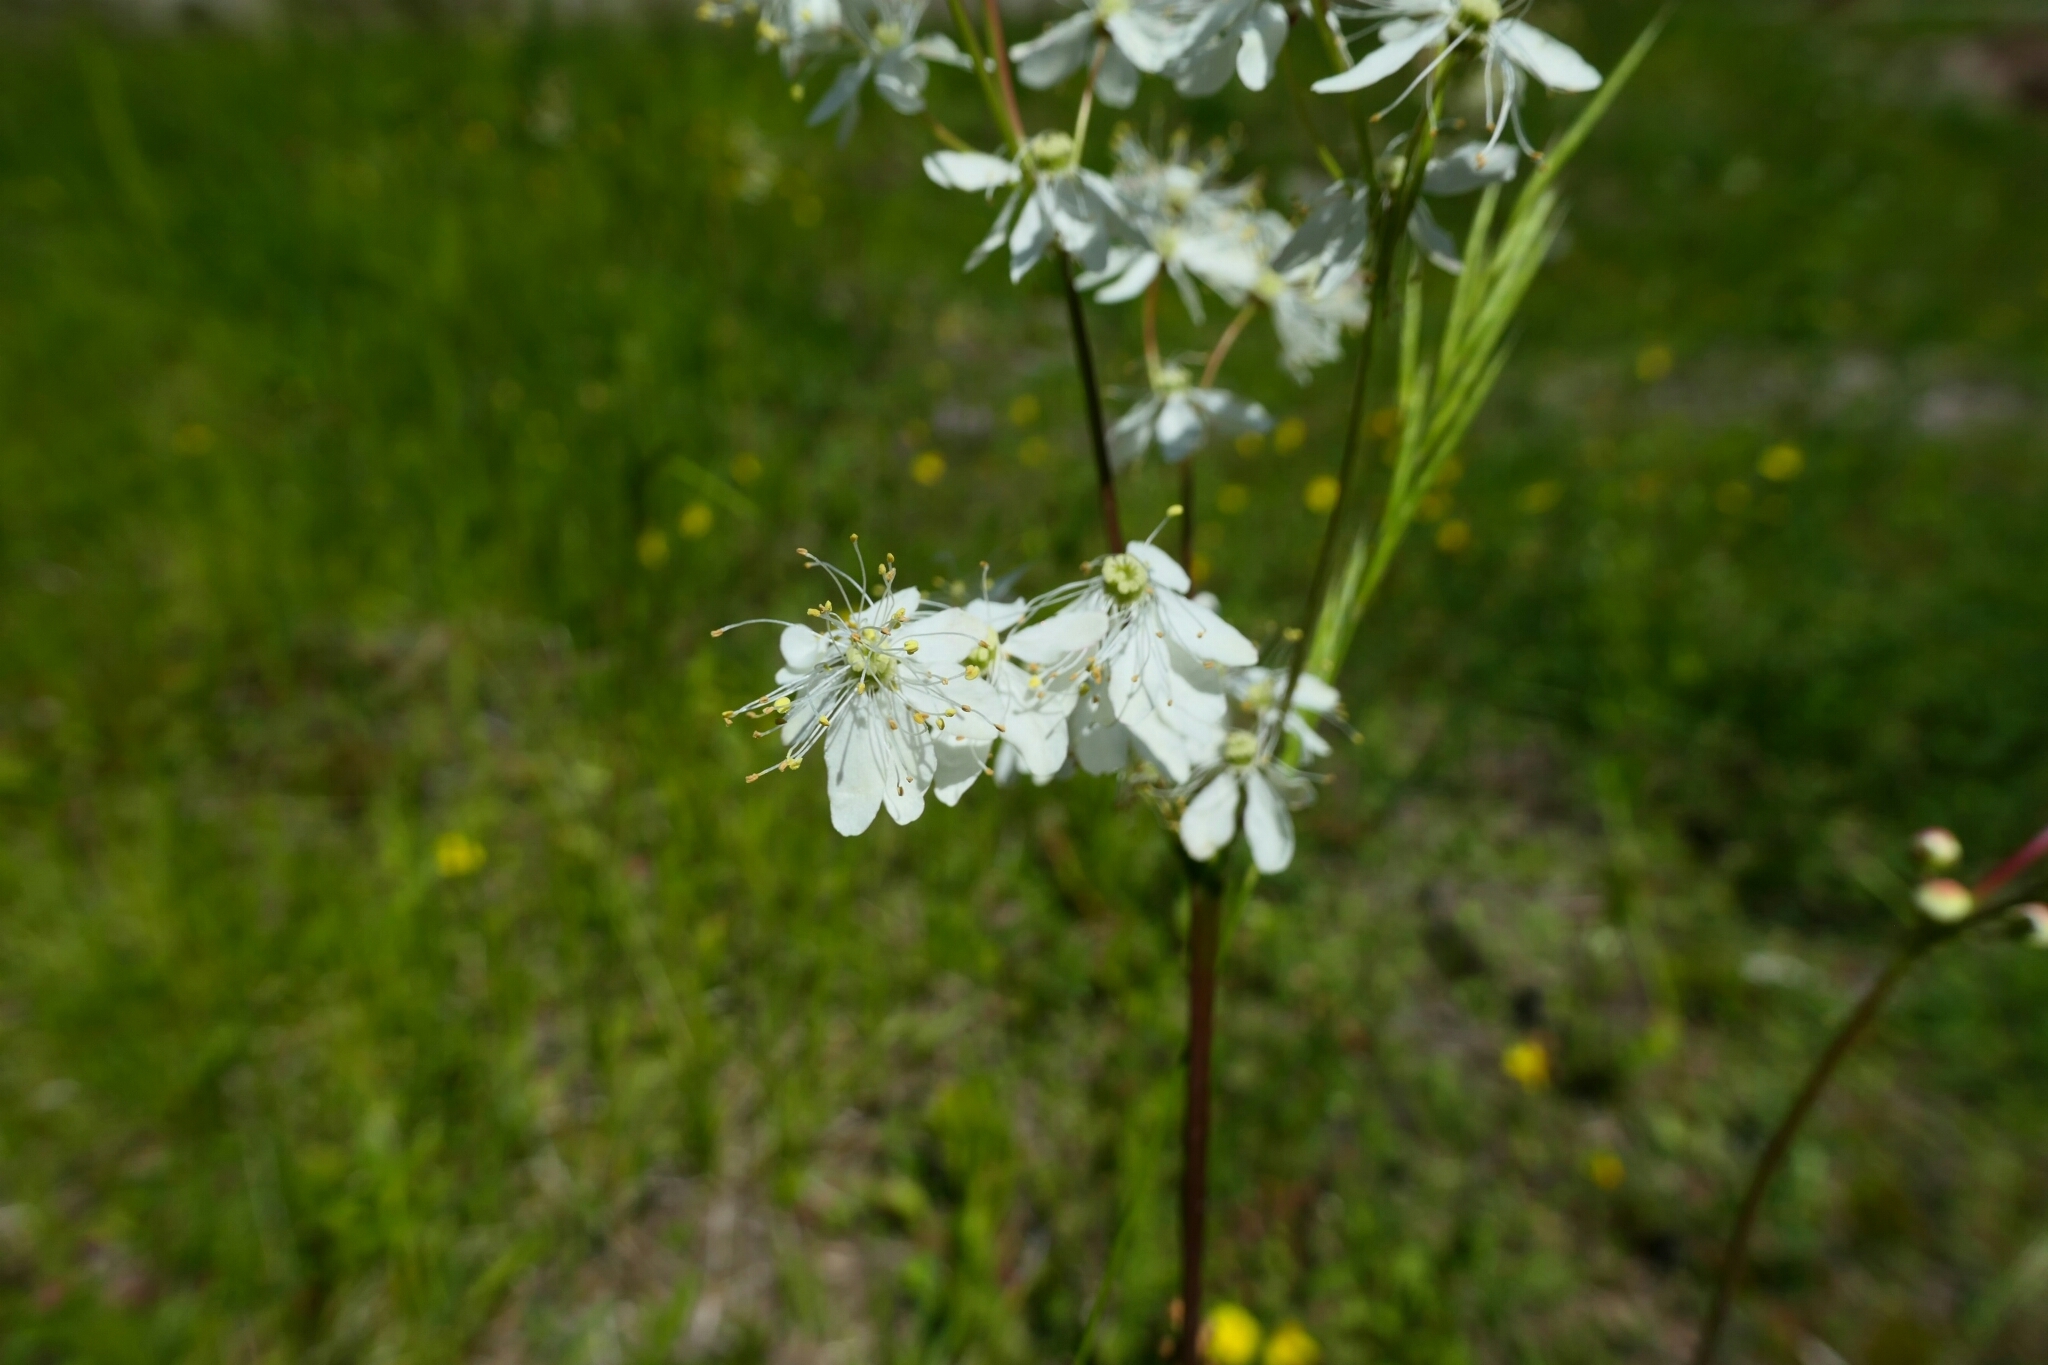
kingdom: Plantae
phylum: Tracheophyta
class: Magnoliopsida
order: Rosales
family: Rosaceae
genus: Filipendula
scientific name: Filipendula vulgaris
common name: Dropwort
